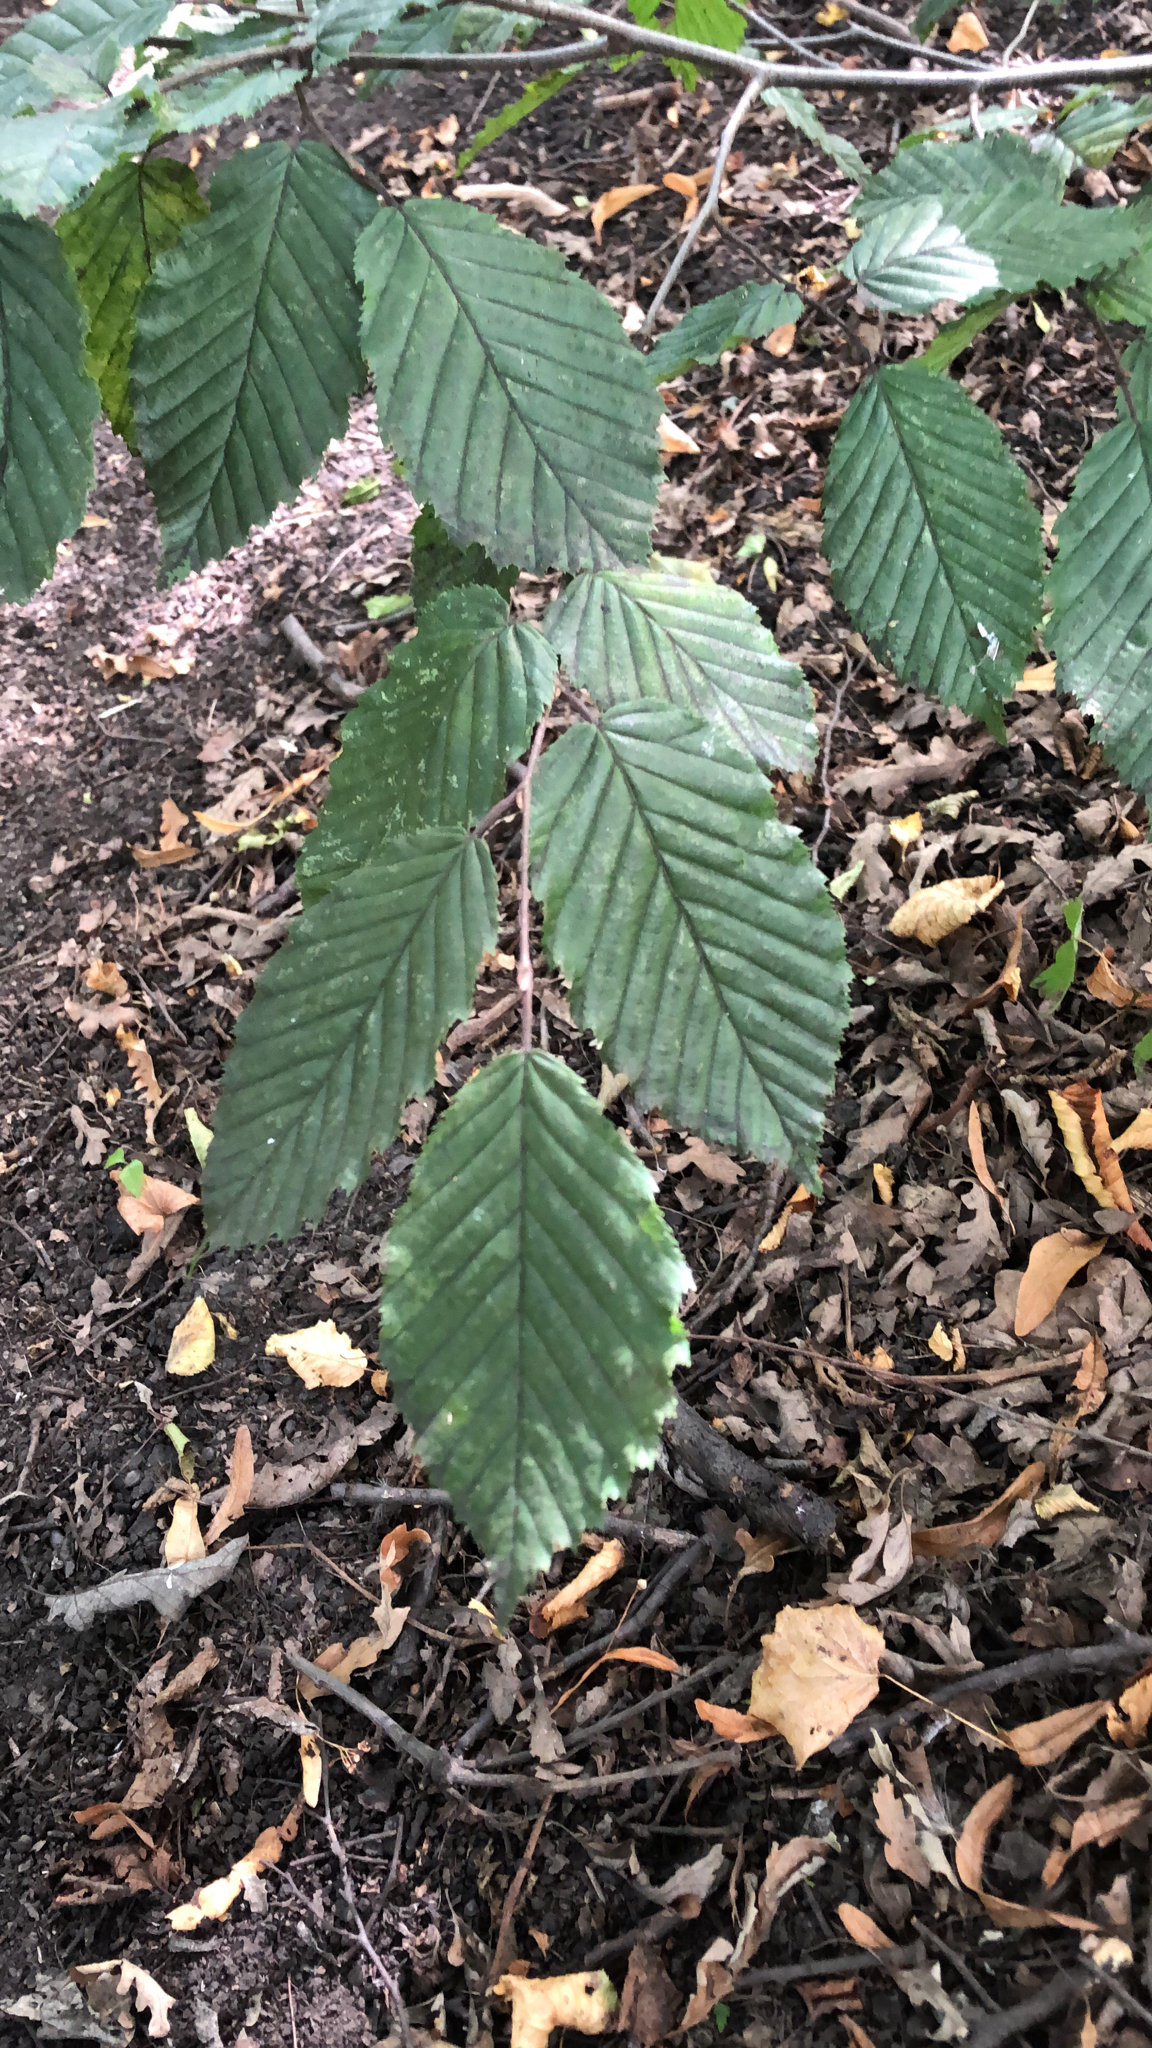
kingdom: Plantae
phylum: Tracheophyta
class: Magnoliopsida
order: Fagales
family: Betulaceae
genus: Carpinus
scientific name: Carpinus betulus
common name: Hornbeam
